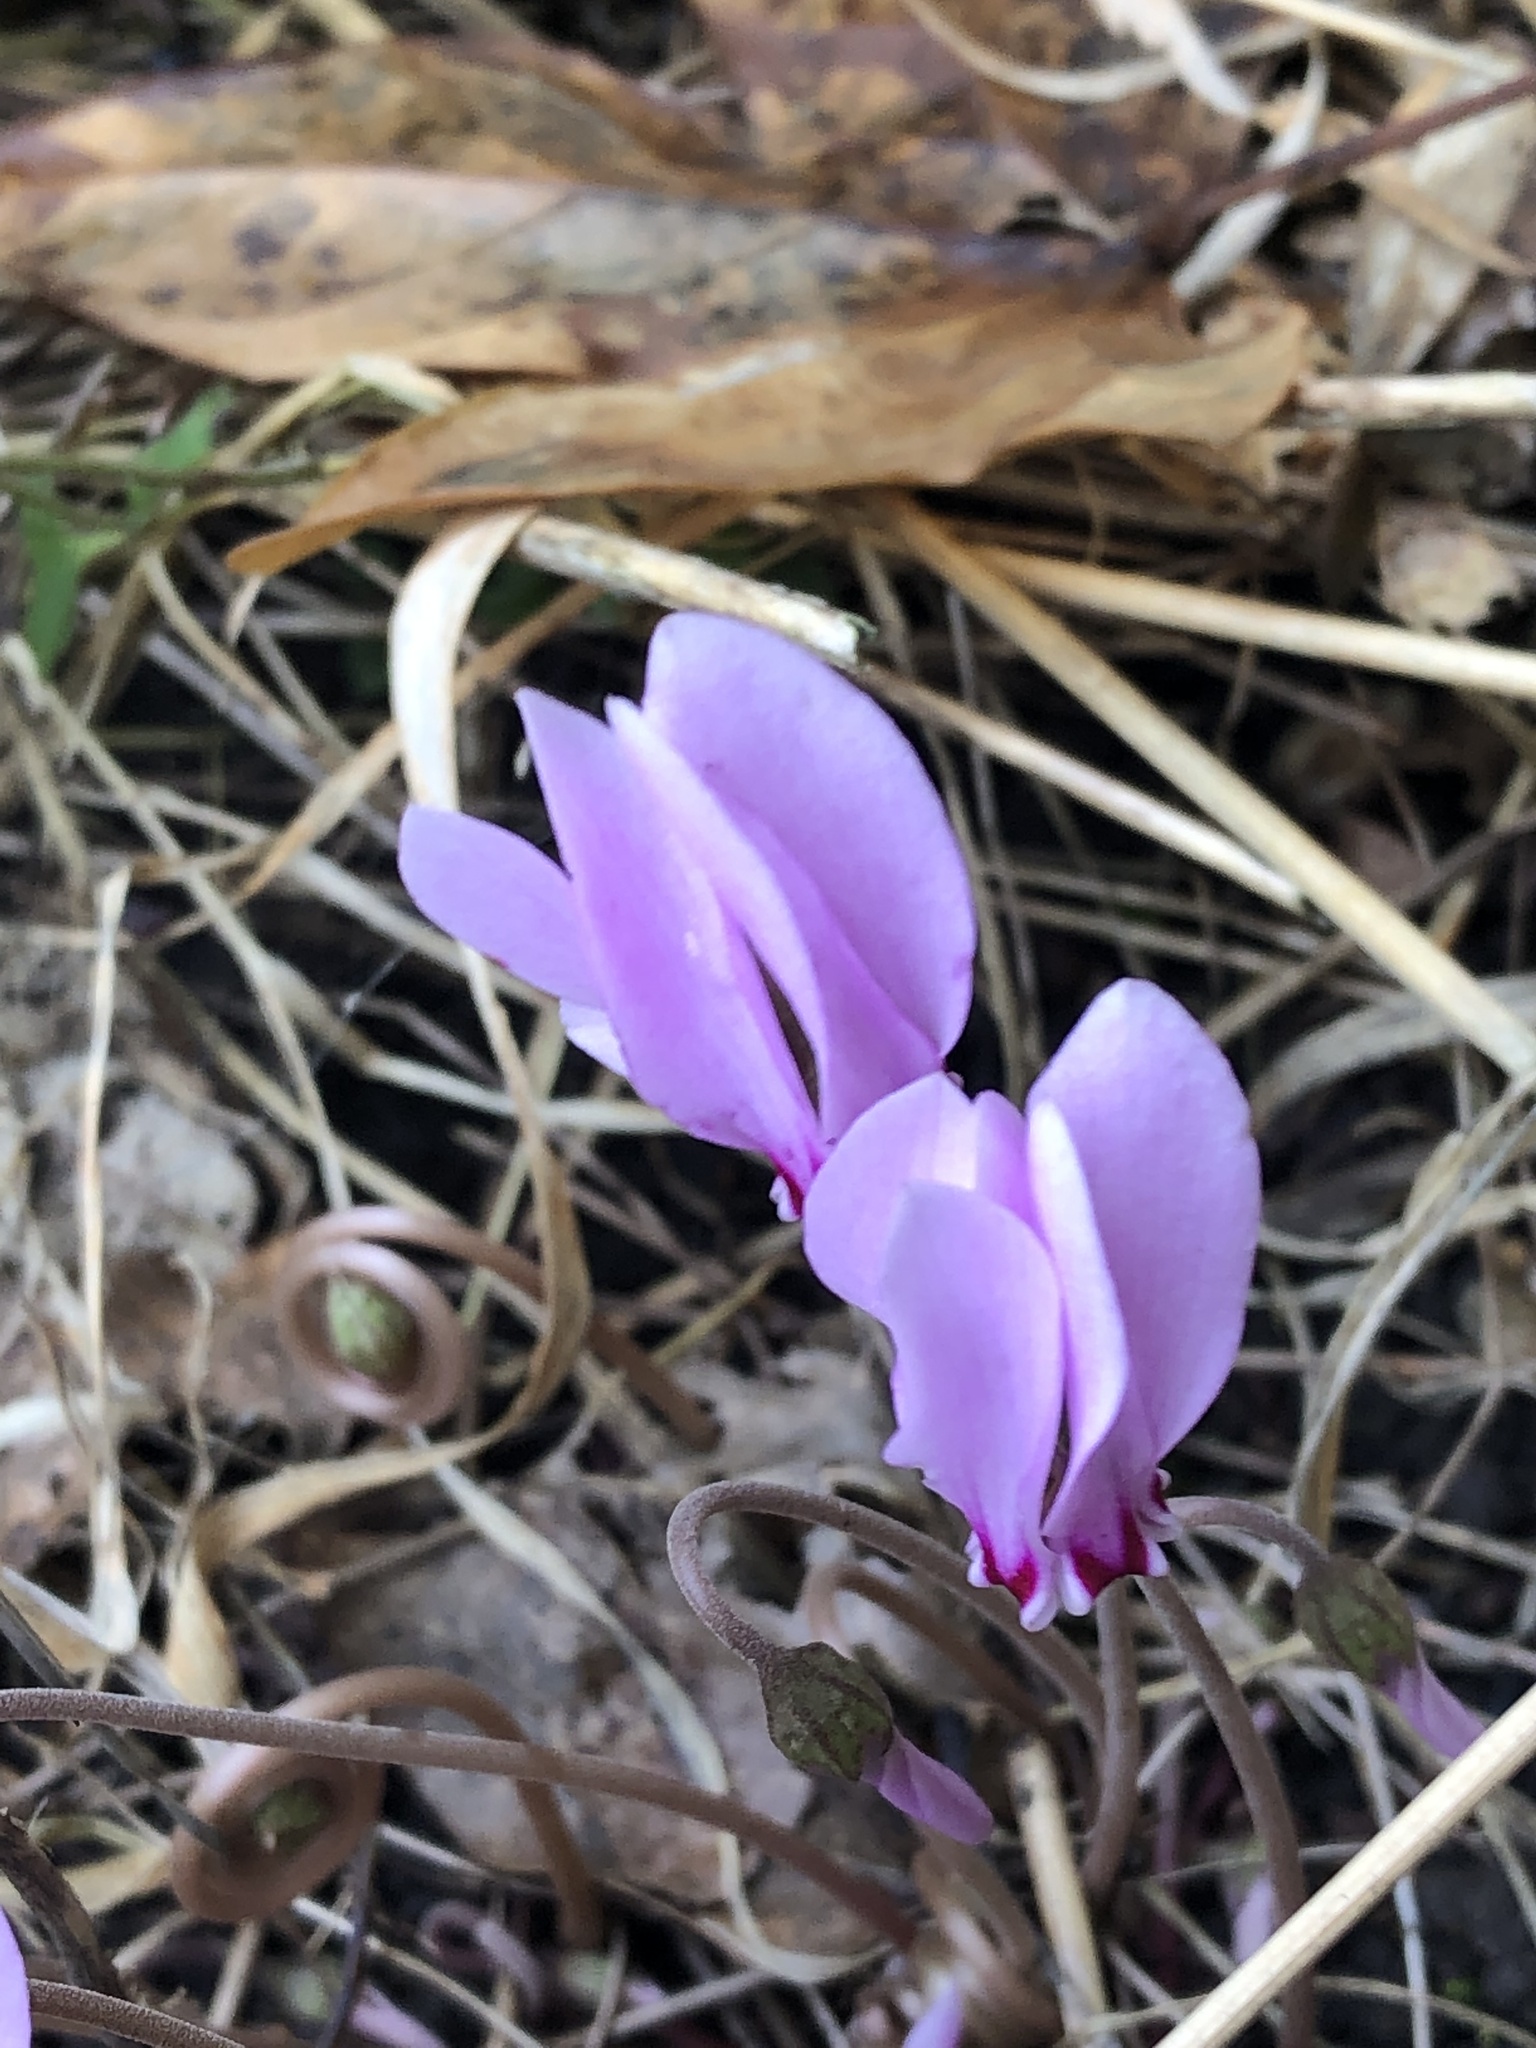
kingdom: Plantae
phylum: Tracheophyta
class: Magnoliopsida
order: Ericales
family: Primulaceae
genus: Cyclamen
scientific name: Cyclamen hederifolium
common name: Sowbread
